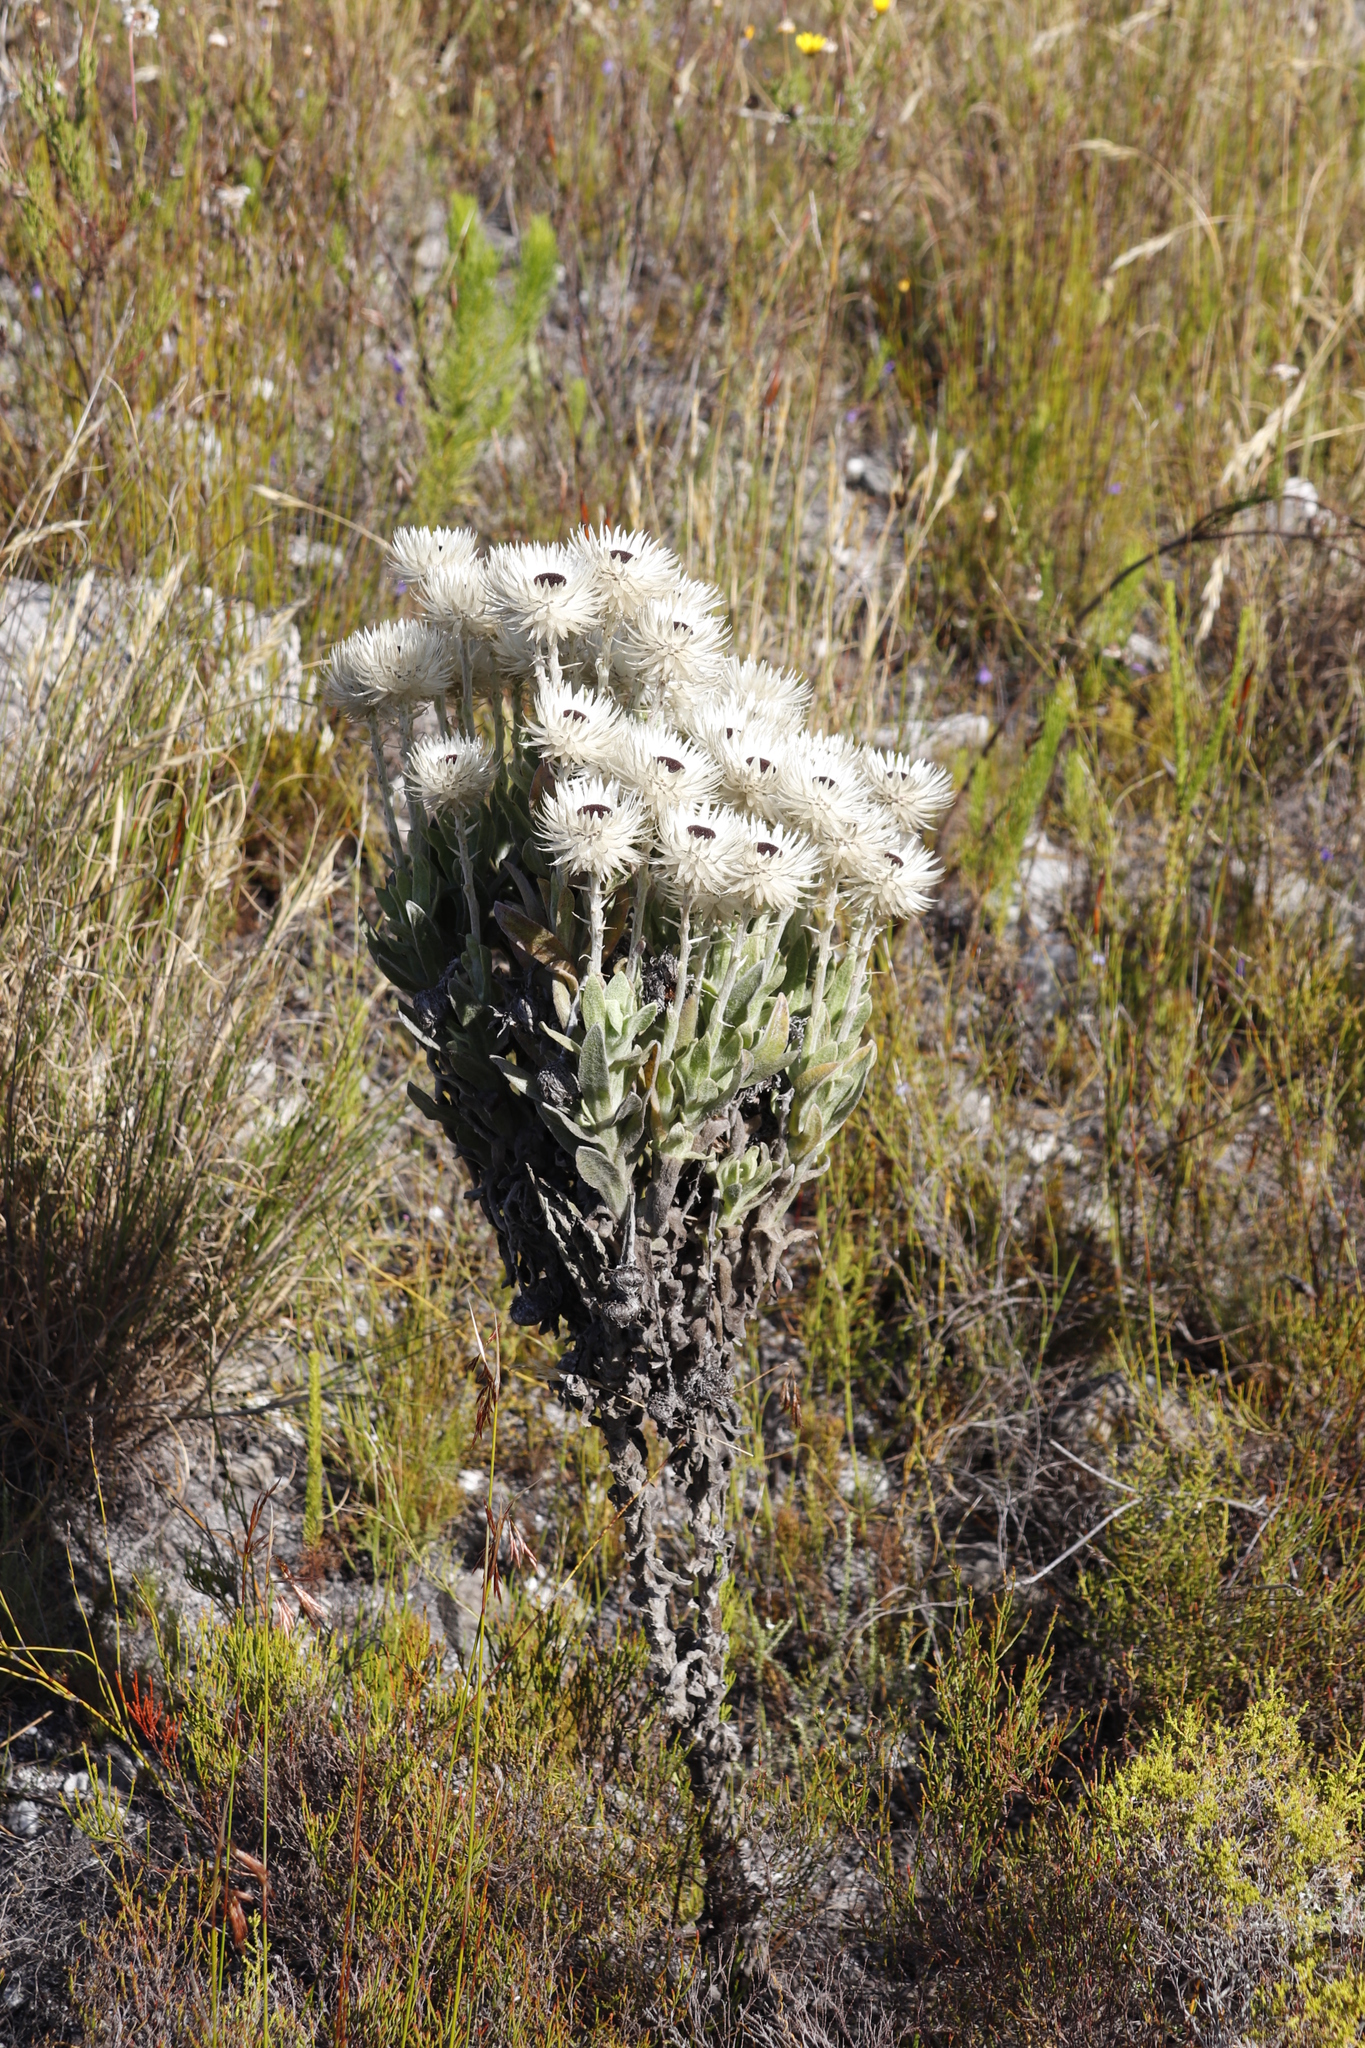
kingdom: Plantae
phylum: Tracheophyta
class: Magnoliopsida
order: Asterales
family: Asteraceae
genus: Syncarpha
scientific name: Syncarpha vestita
